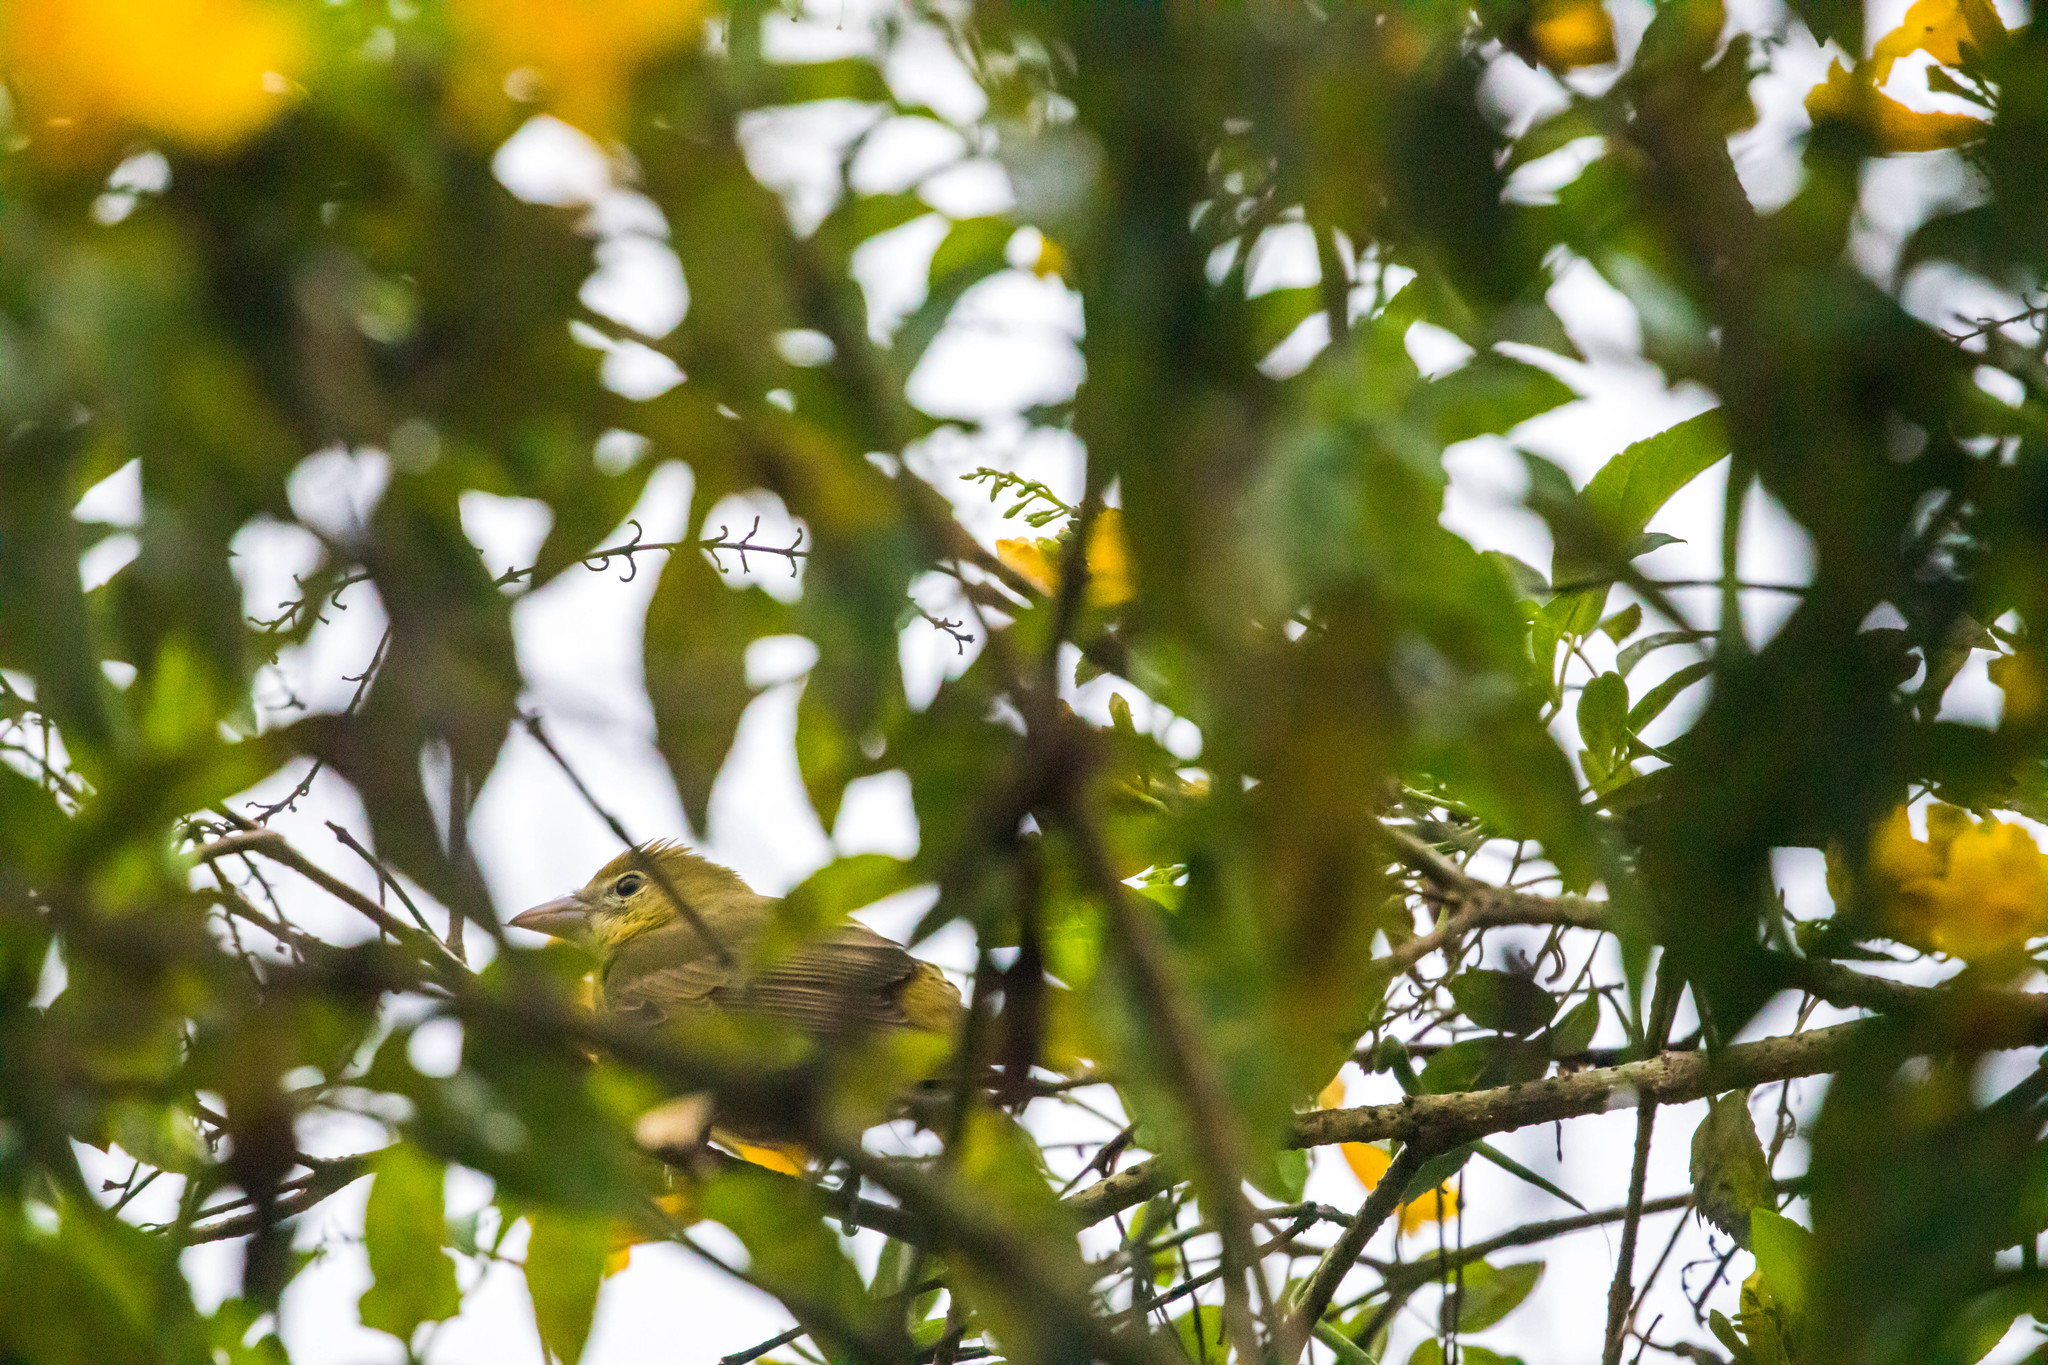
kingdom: Animalia
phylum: Chordata
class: Aves
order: Passeriformes
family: Cardinalidae
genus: Piranga
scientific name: Piranga rubra
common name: Summer tanager
